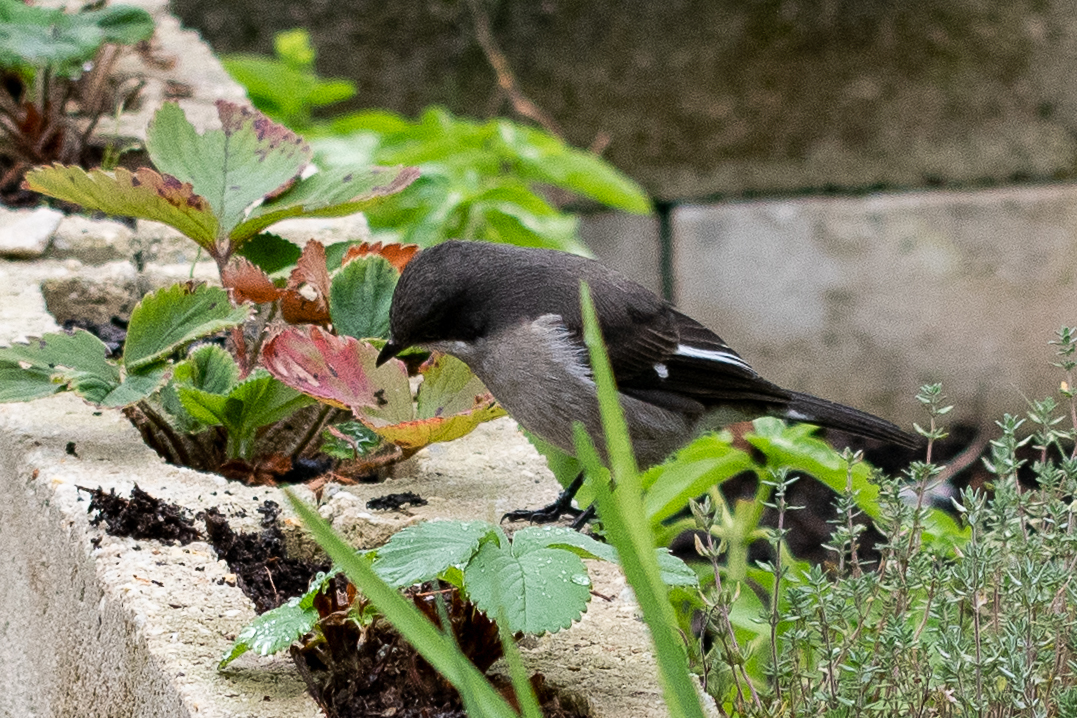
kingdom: Animalia
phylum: Chordata
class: Aves
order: Passeriformes
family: Muscicapidae
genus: Sigelus
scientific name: Sigelus silens
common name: Fiscal flycatcher
